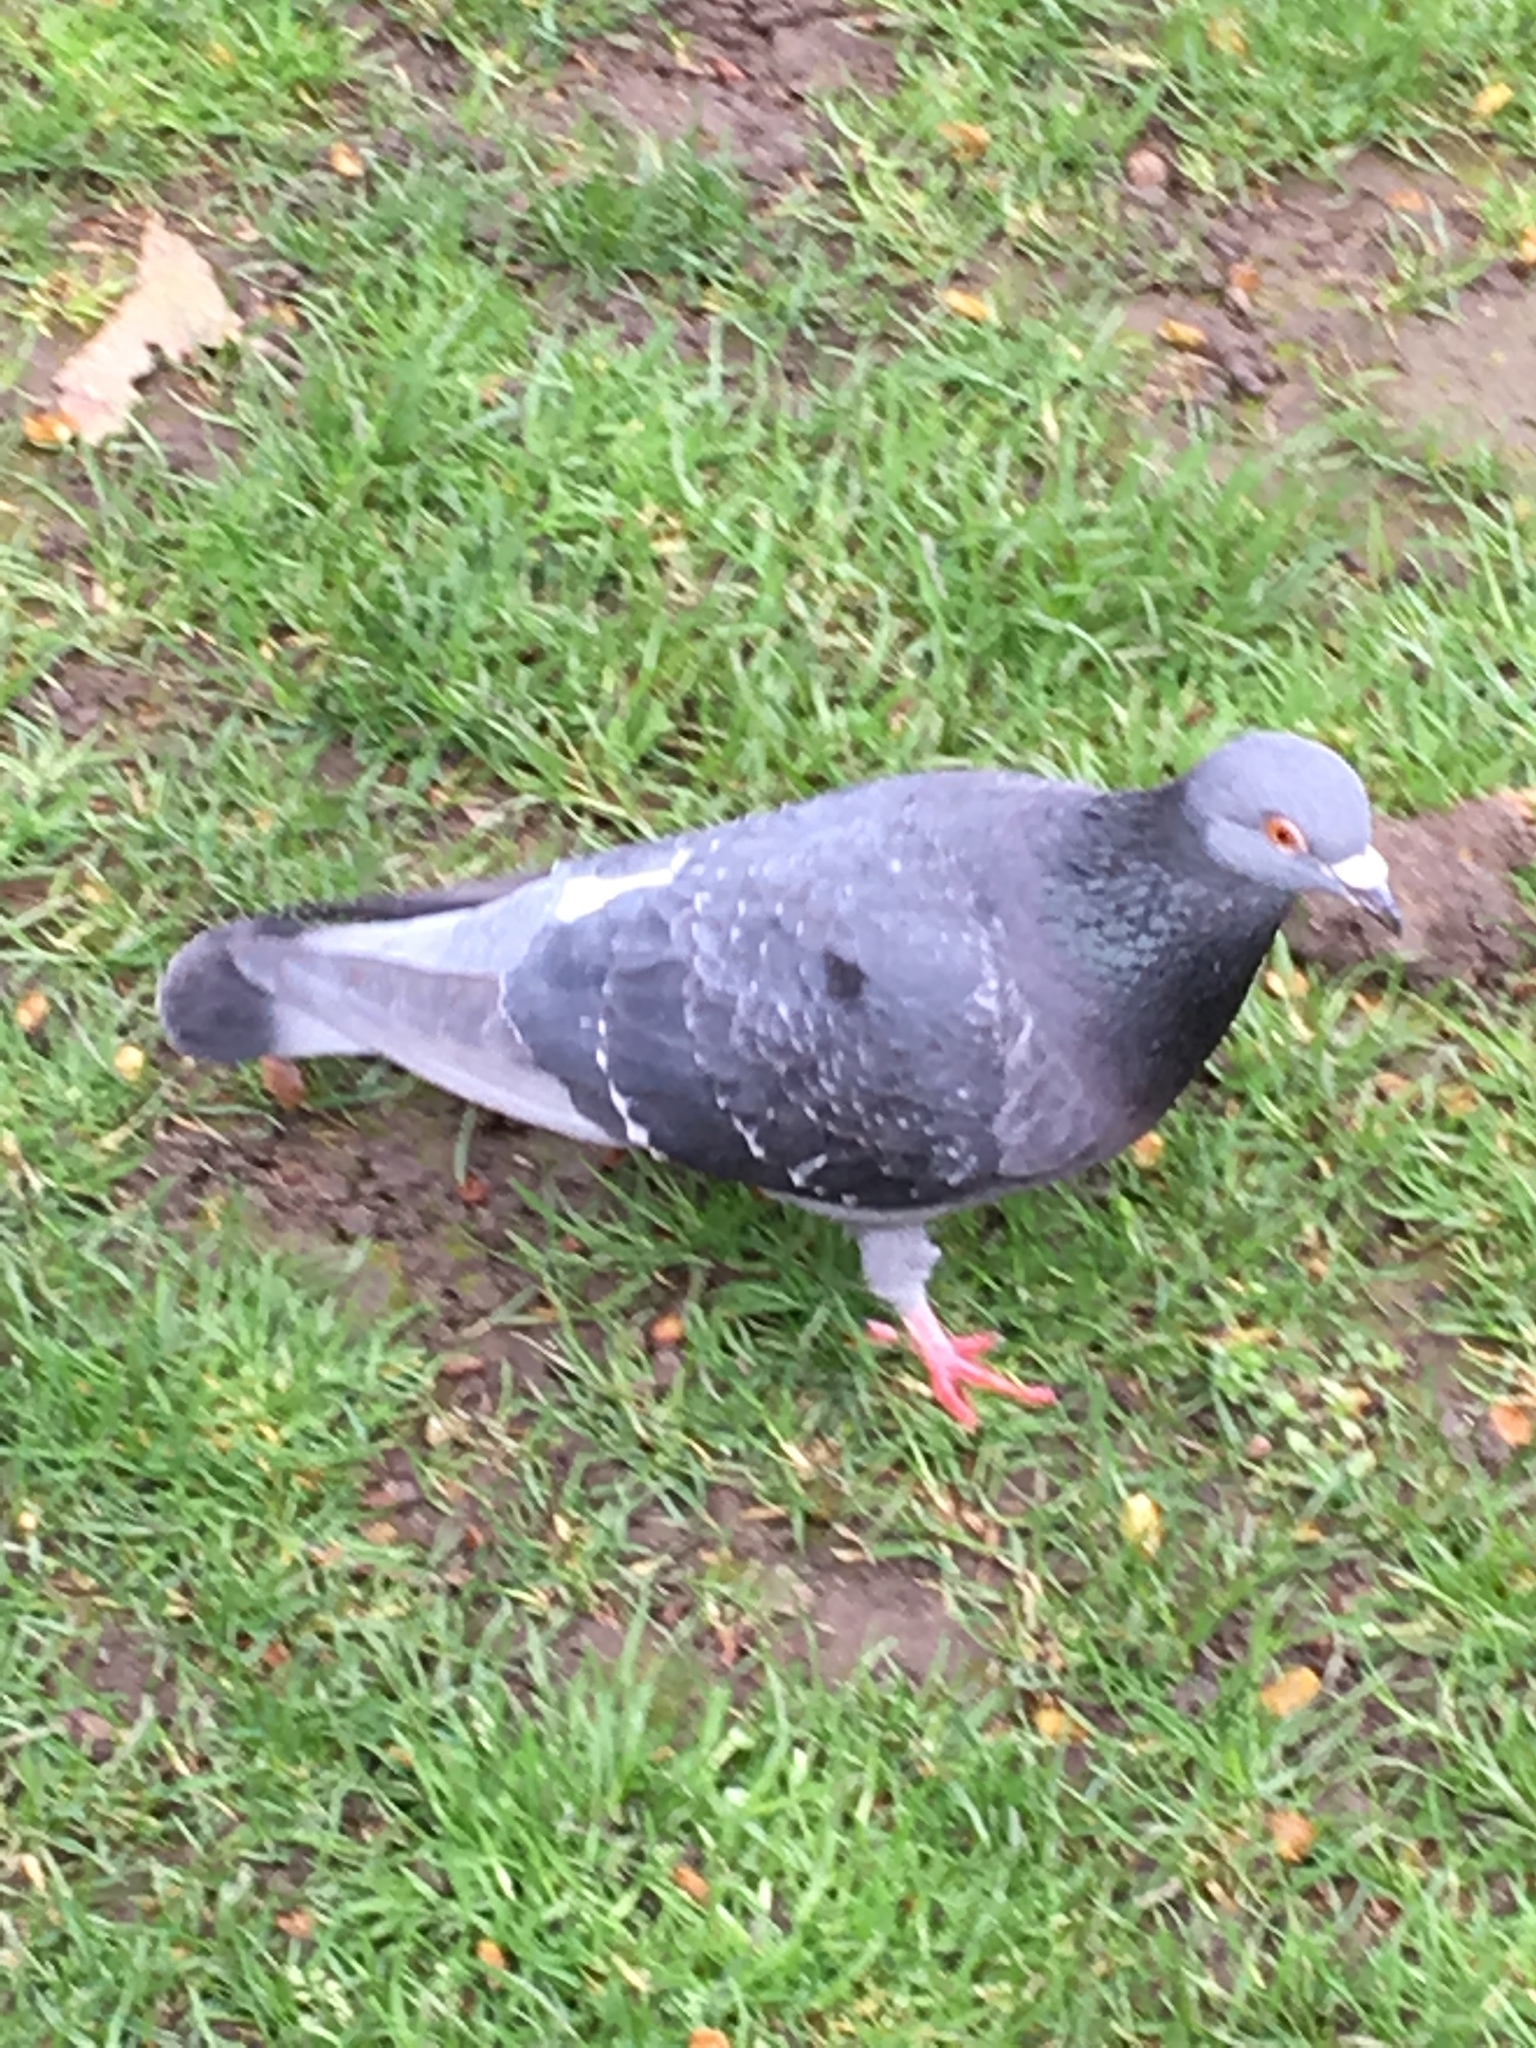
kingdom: Animalia
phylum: Chordata
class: Aves
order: Columbiformes
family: Columbidae
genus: Columba
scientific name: Columba livia
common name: Rock pigeon
